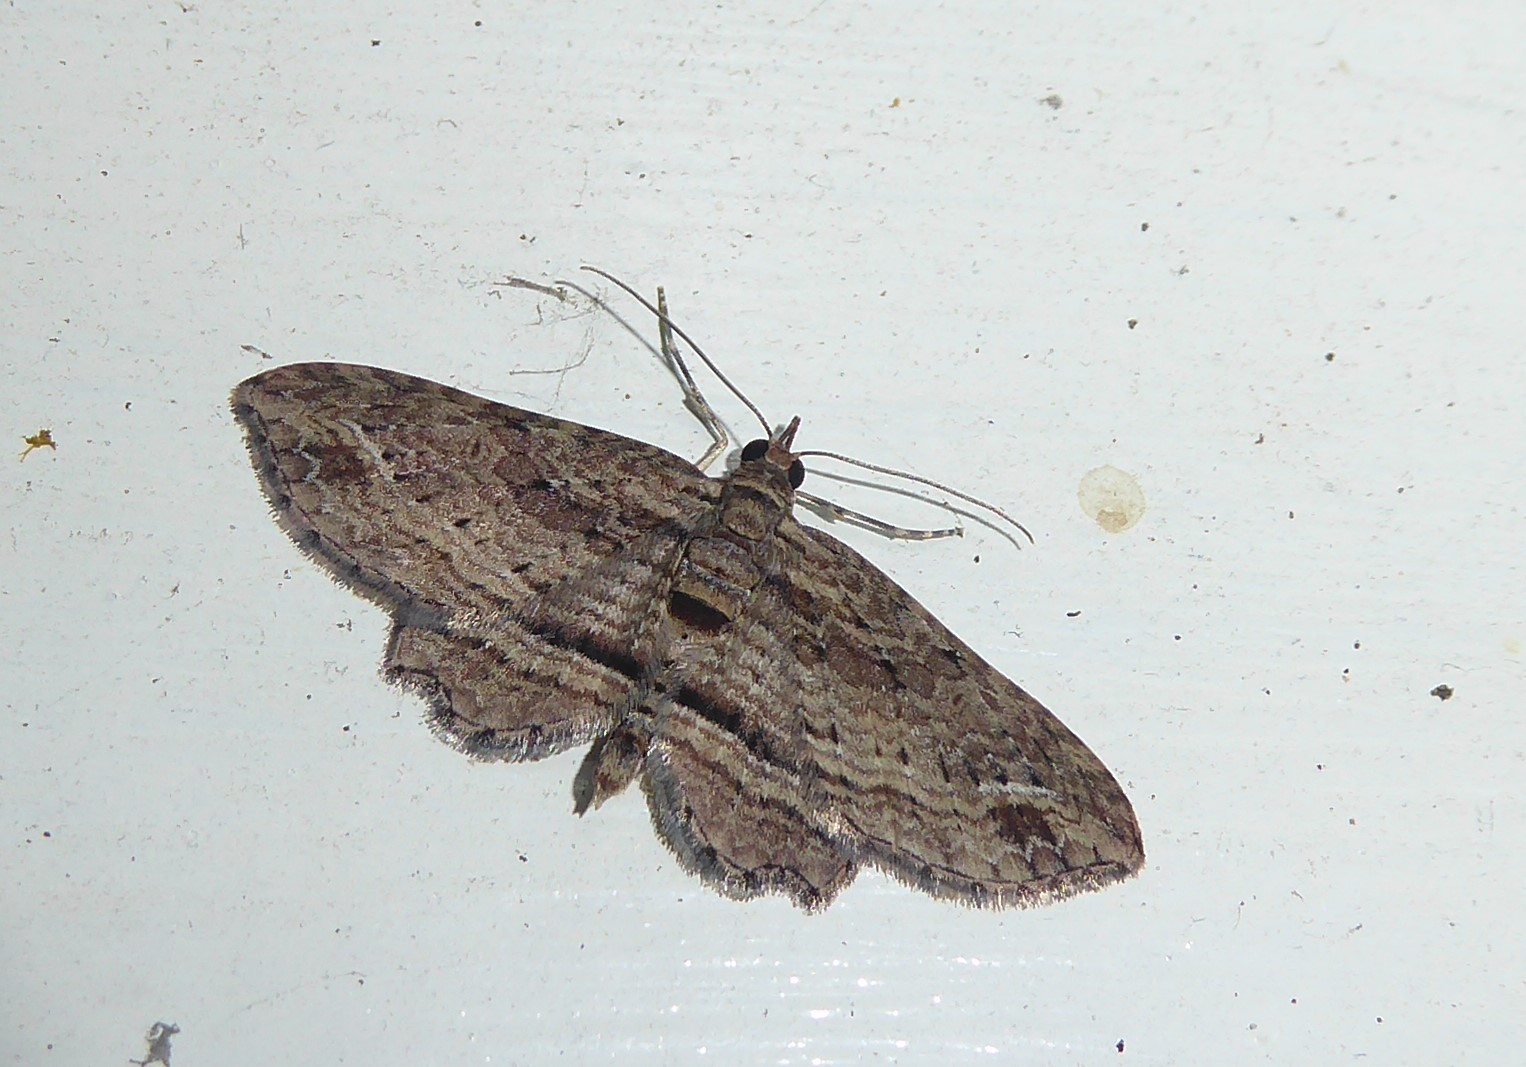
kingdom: Animalia
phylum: Arthropoda
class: Insecta
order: Lepidoptera
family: Geometridae
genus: Chloroclystis
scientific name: Chloroclystis filata
